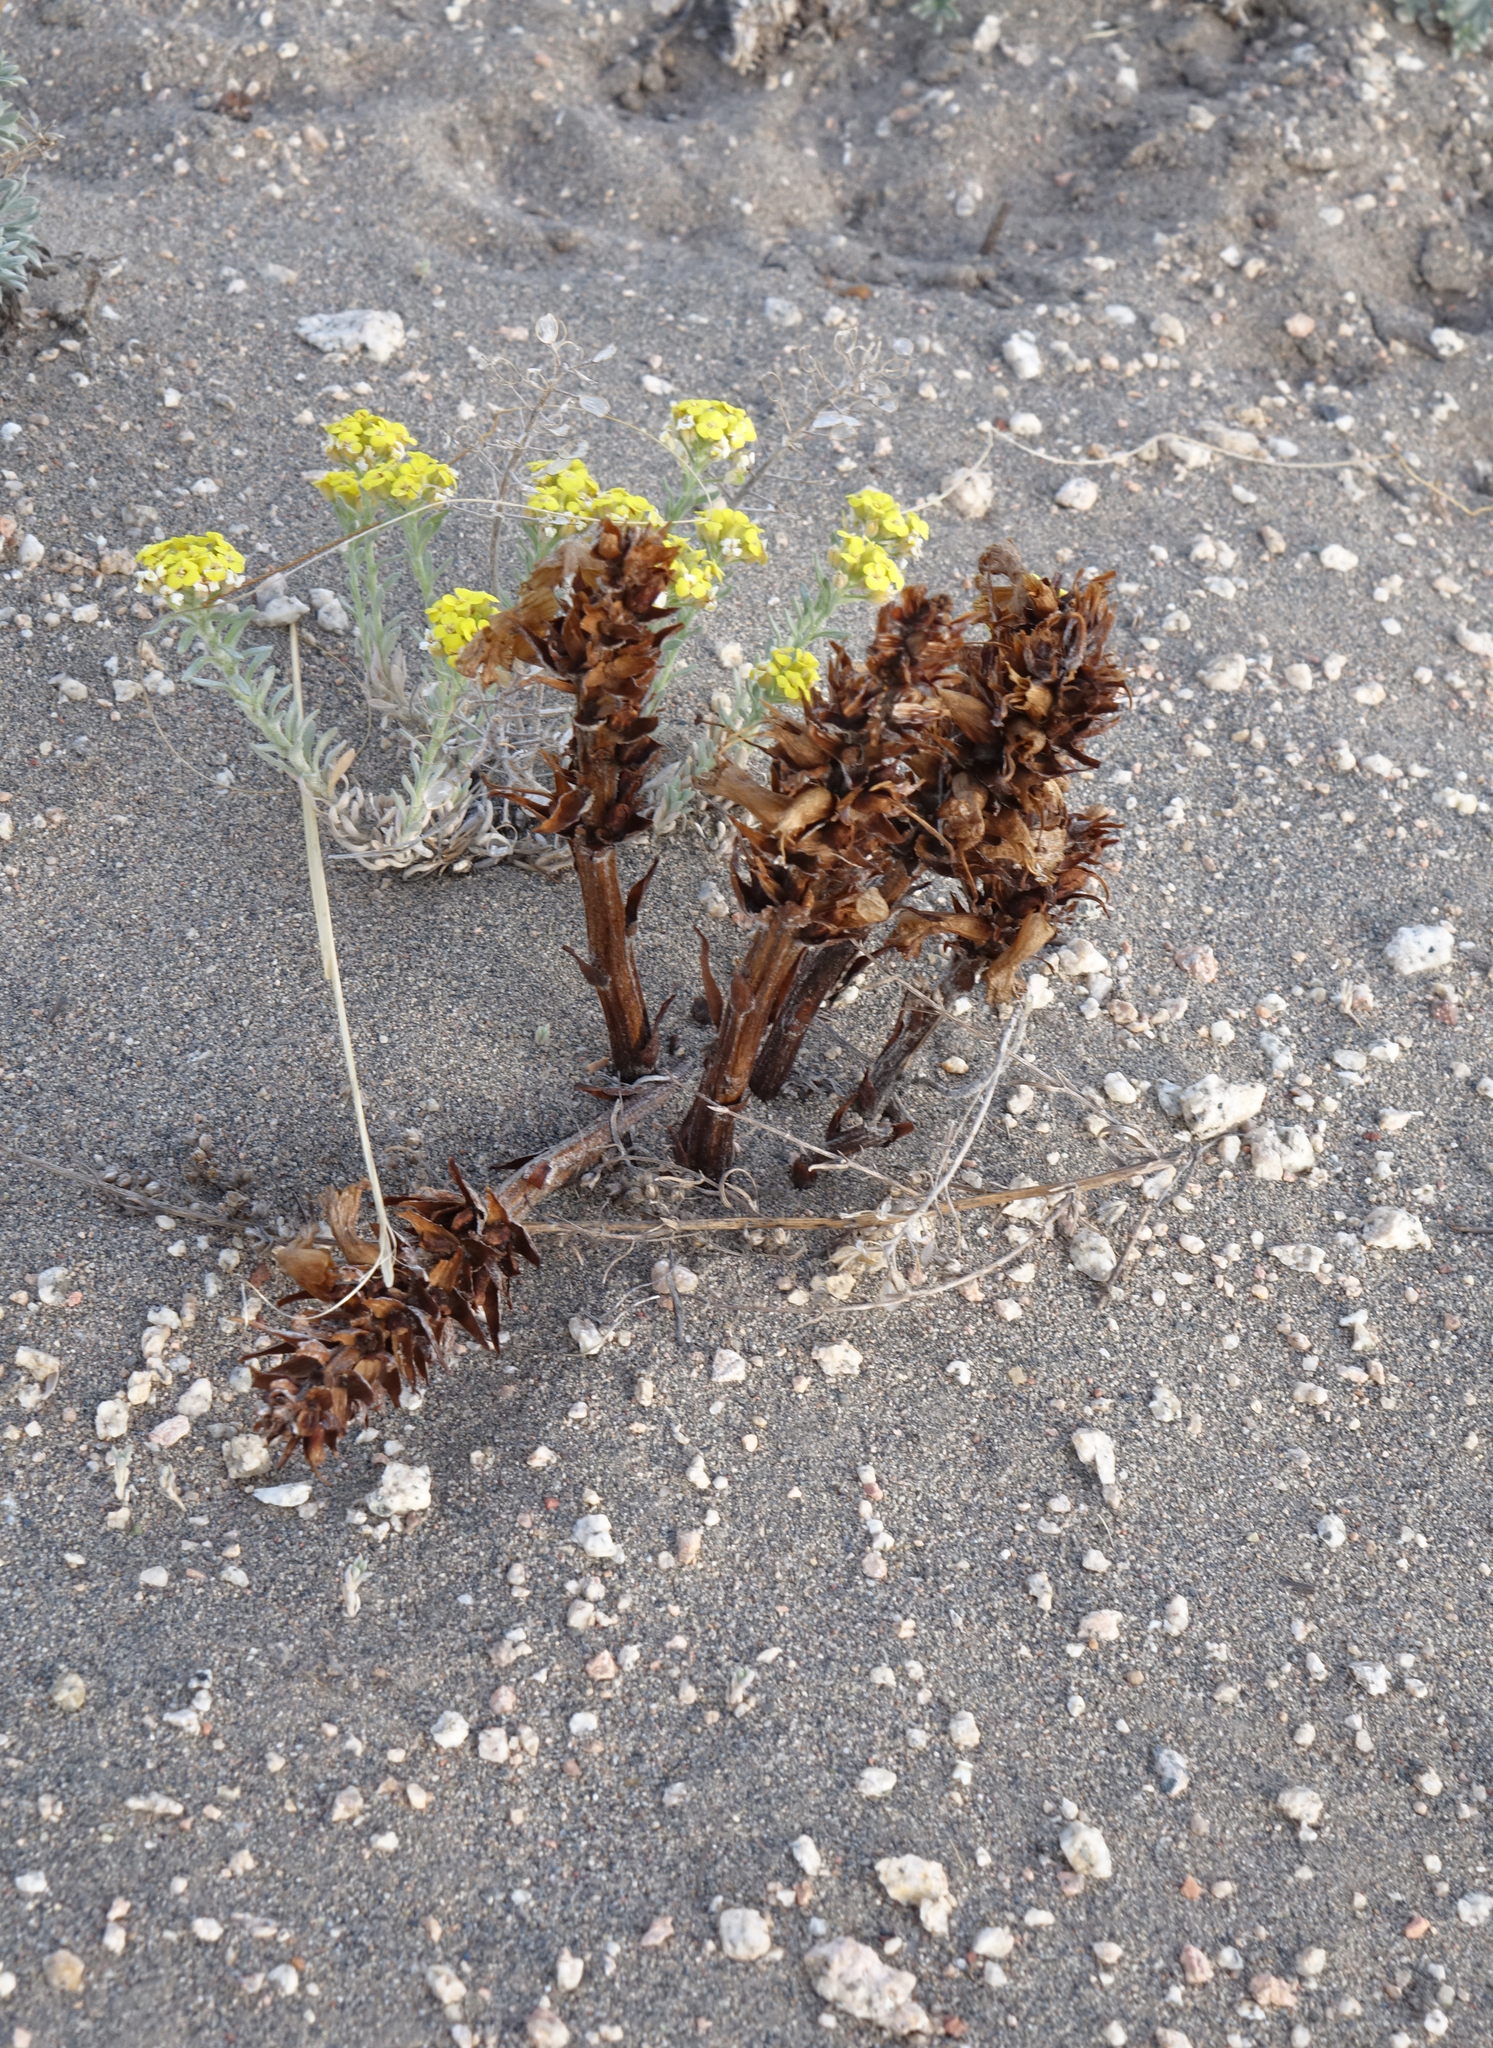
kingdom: Plantae
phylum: Tracheophyta
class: Magnoliopsida
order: Brassicales
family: Brassicaceae
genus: Alyssum
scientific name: Alyssum lenense
